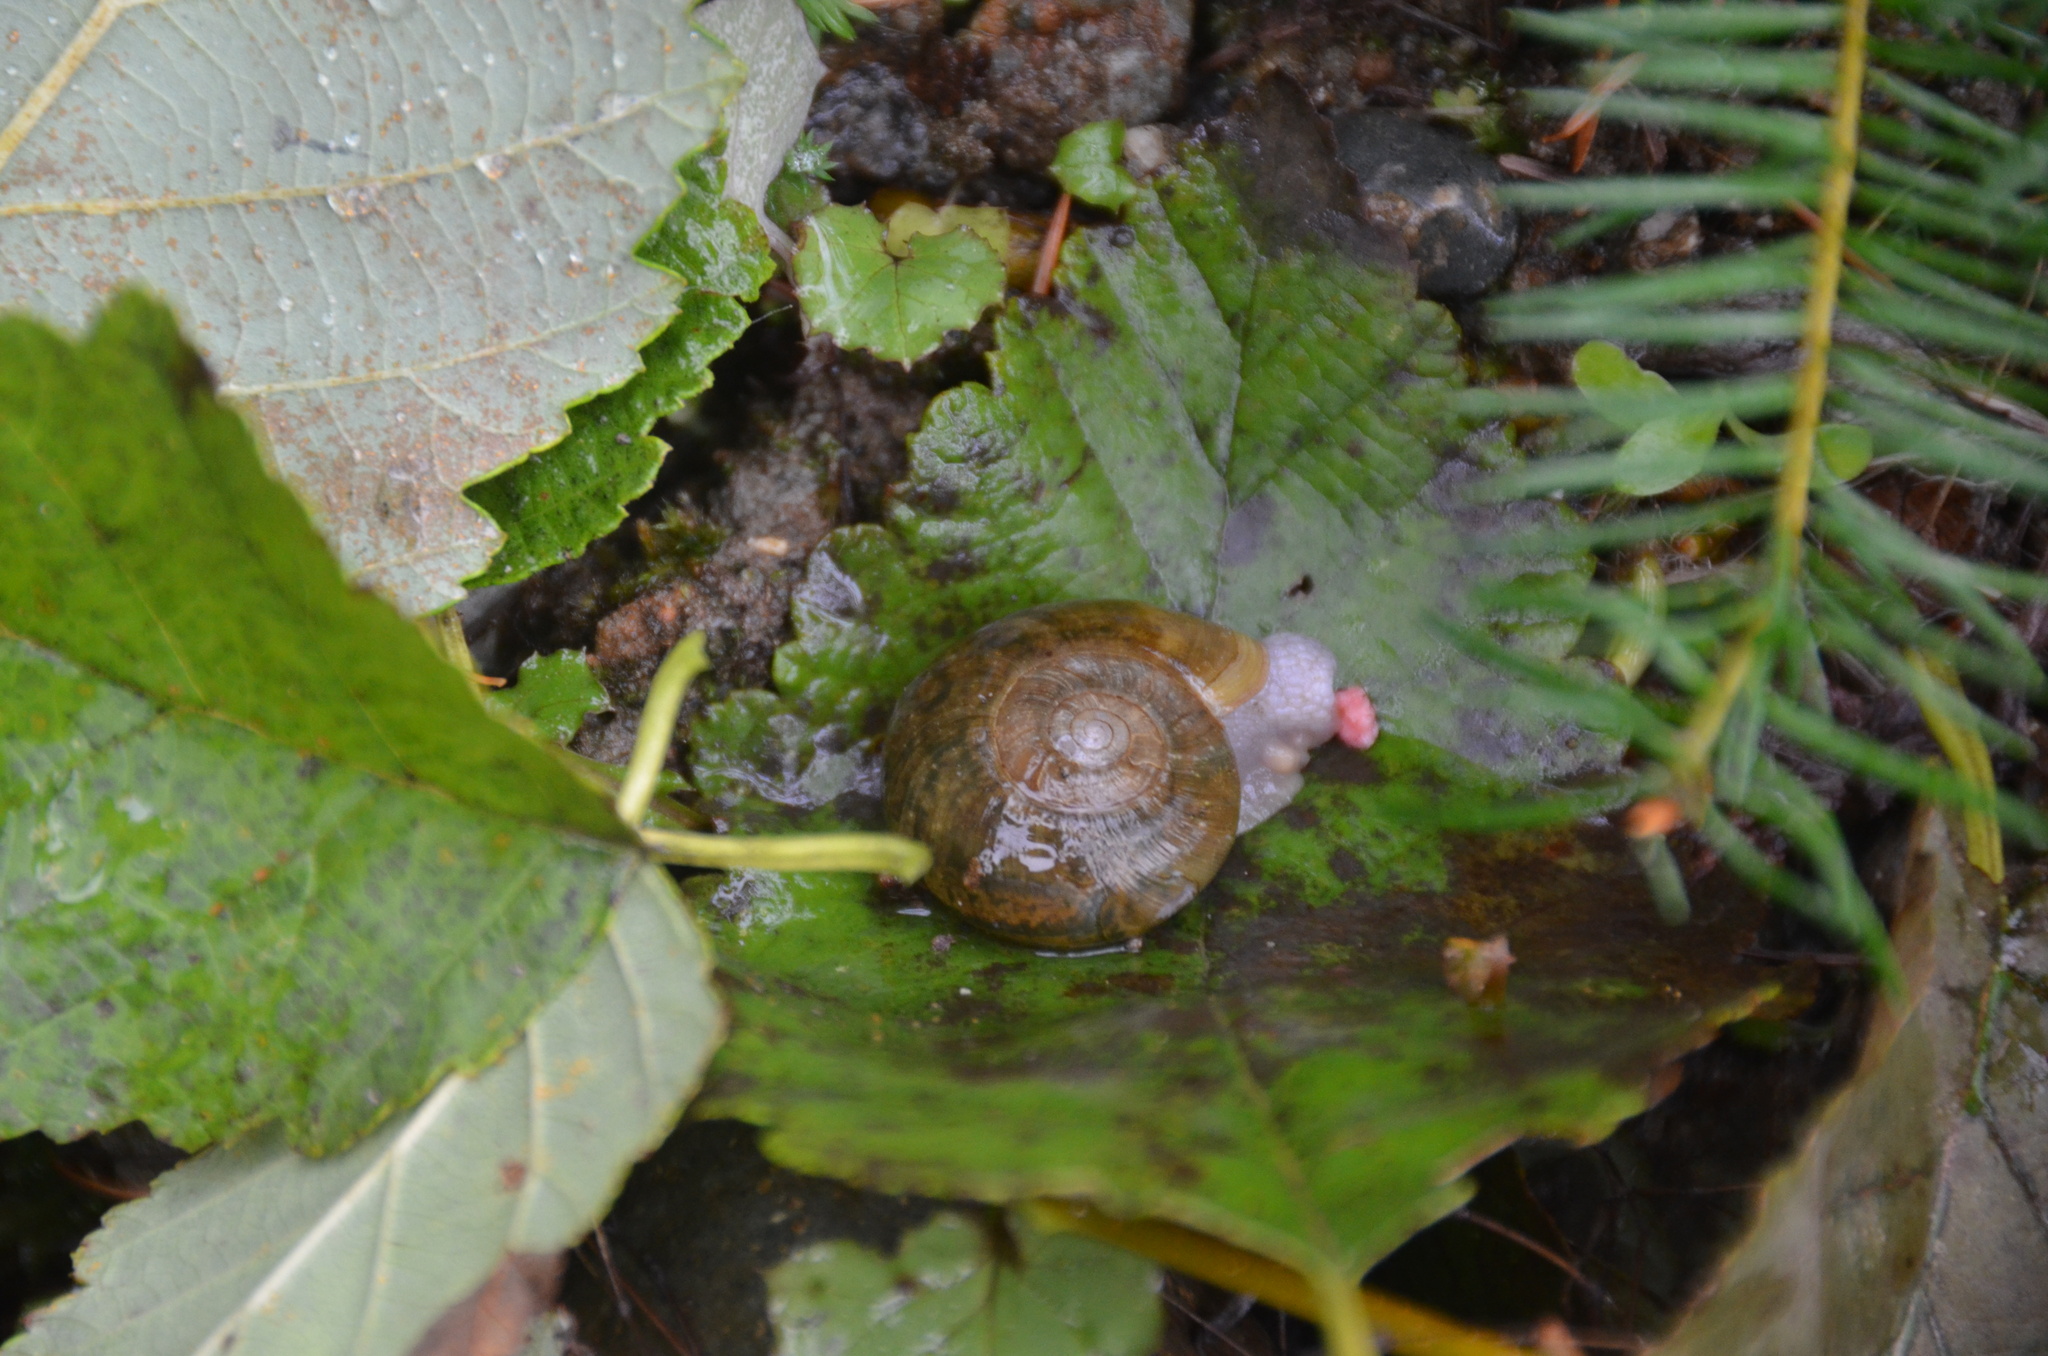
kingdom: Animalia
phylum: Mollusca
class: Gastropoda
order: Stylommatophora
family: Haplotrematidae
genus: Haplotrema
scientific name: Haplotrema vancouverense
